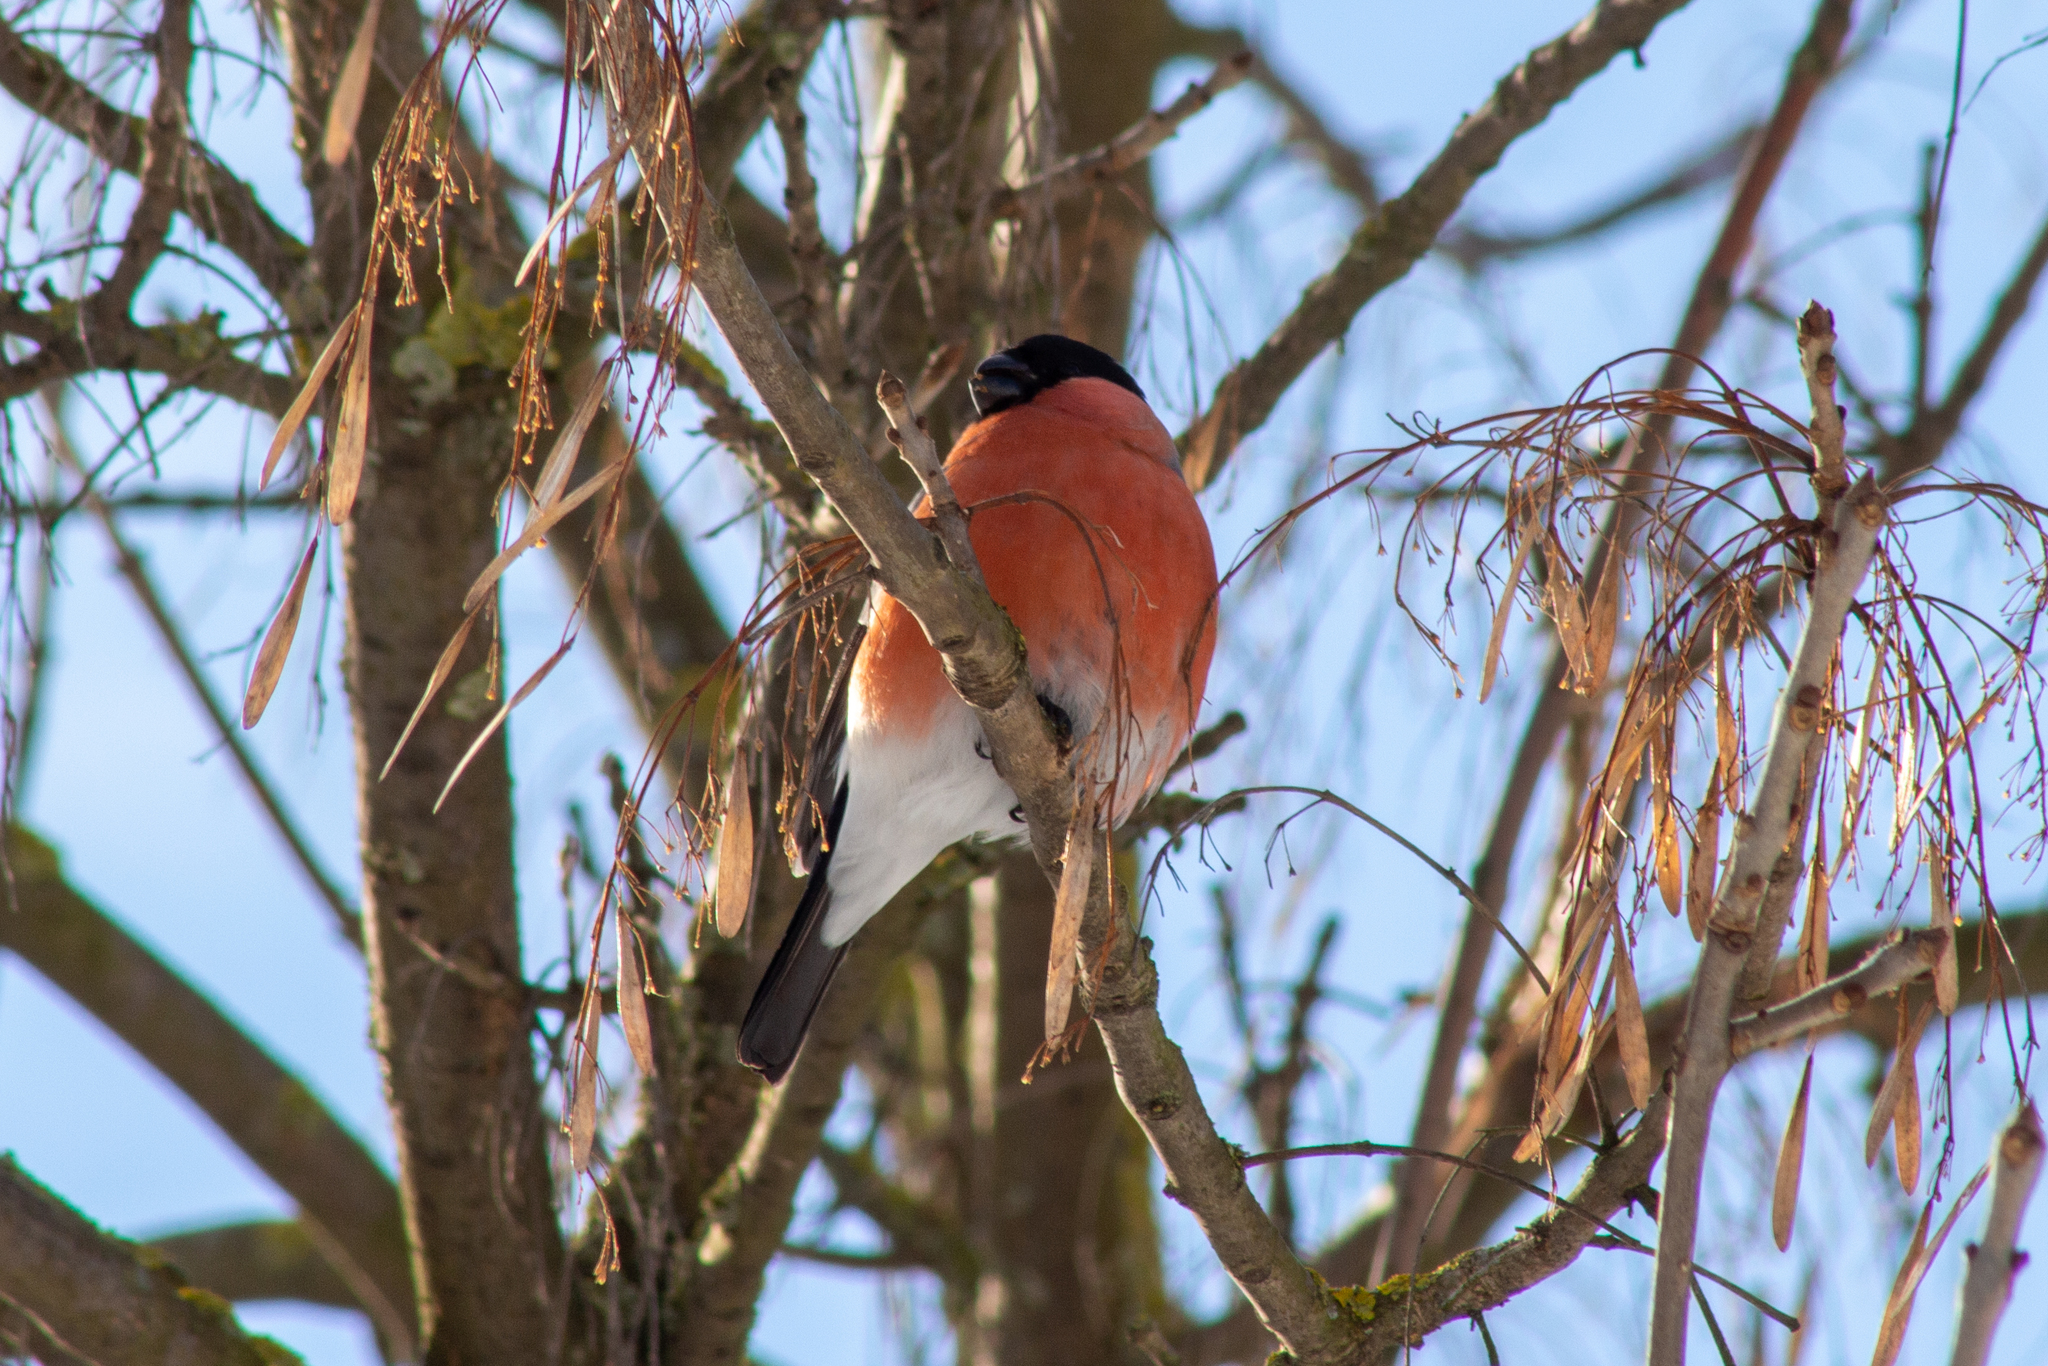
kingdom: Animalia
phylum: Chordata
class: Aves
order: Passeriformes
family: Fringillidae
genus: Pyrrhula
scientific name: Pyrrhula pyrrhula
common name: Eurasian bullfinch
